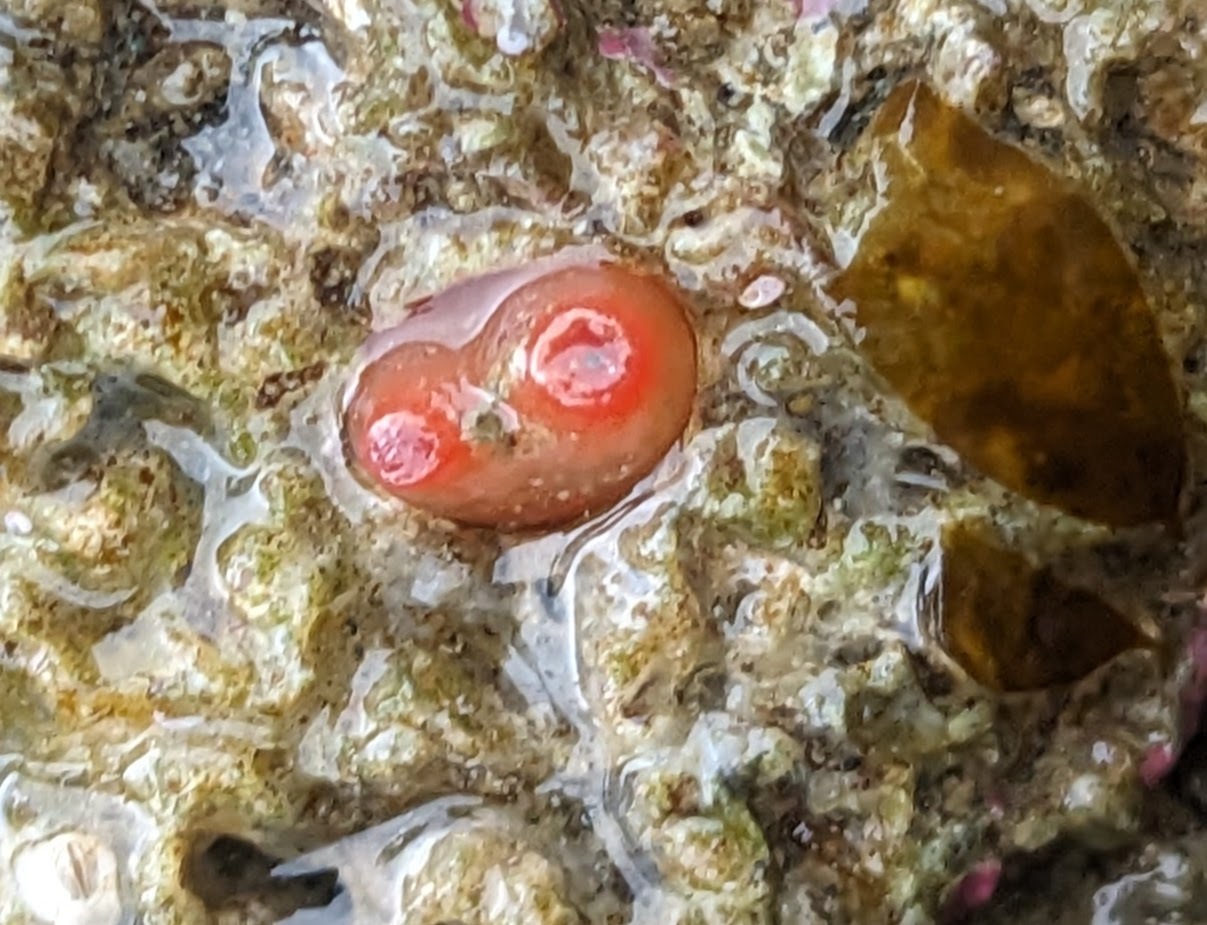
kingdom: Animalia
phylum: Mollusca
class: Bivalvia
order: Adapedonta
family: Hiatellidae
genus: Hiatella
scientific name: Hiatella arctica
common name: Arctic hiatella
